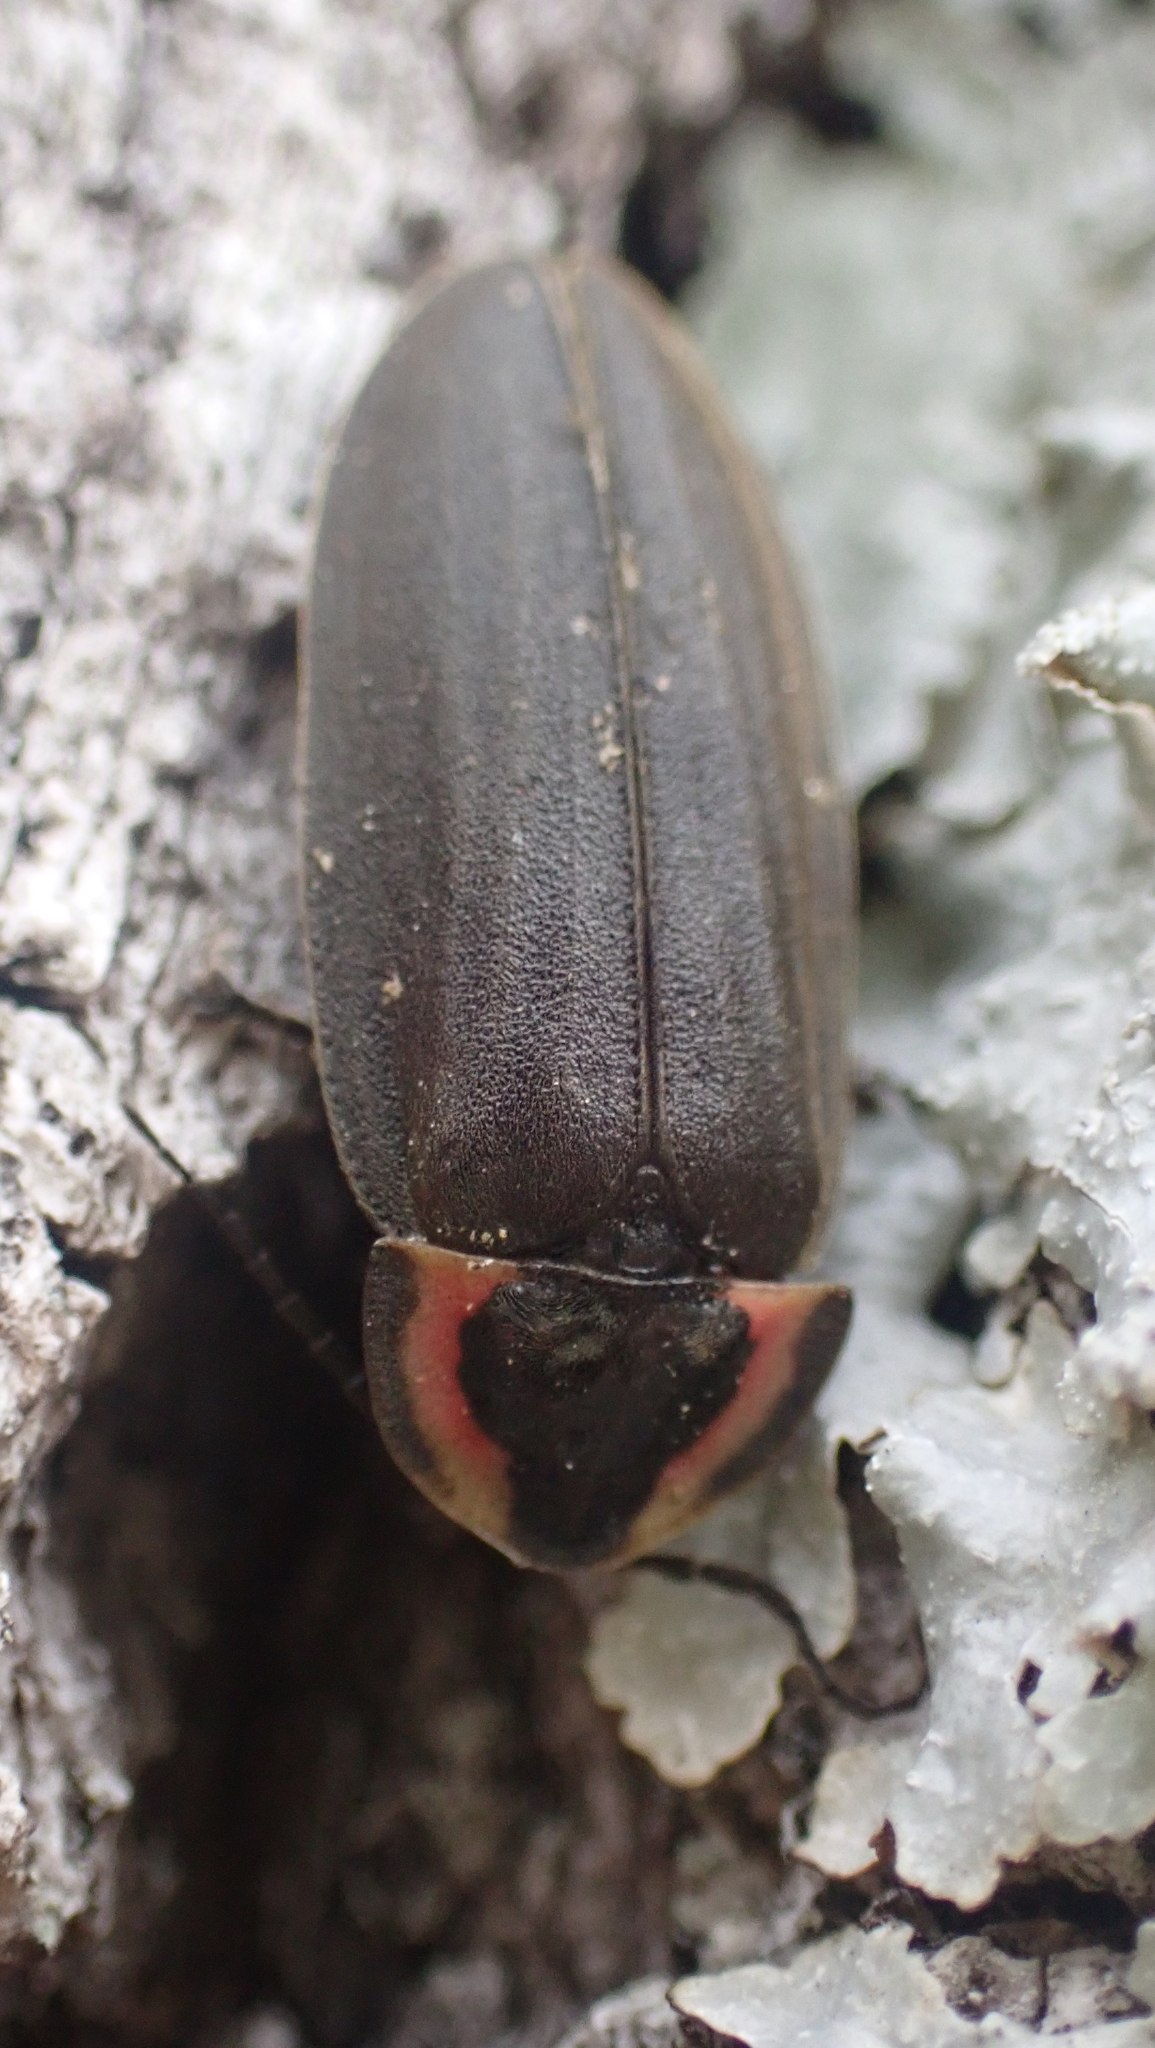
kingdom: Animalia
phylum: Arthropoda
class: Insecta
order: Coleoptera
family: Lampyridae
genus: Photinus
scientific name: Photinus corrusca
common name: Winter firefly
